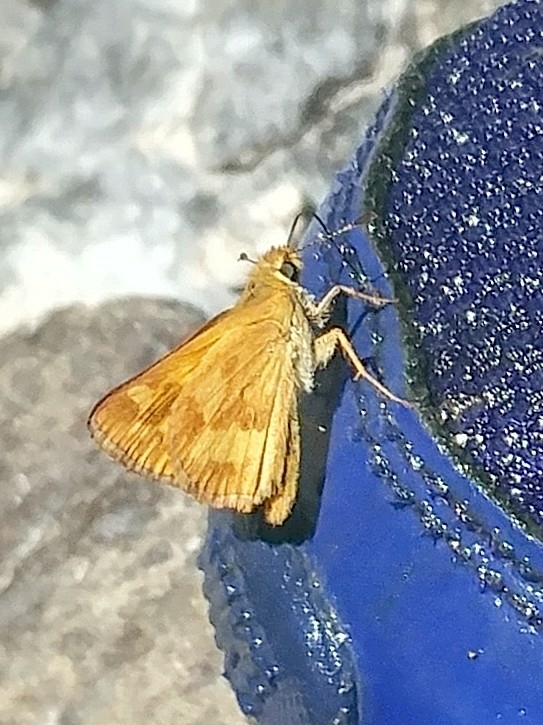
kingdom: Animalia
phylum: Arthropoda
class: Insecta
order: Lepidoptera
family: Hesperiidae
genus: Ochlodes
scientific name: Ochlodes sylvanoides
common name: Woodland skipper
